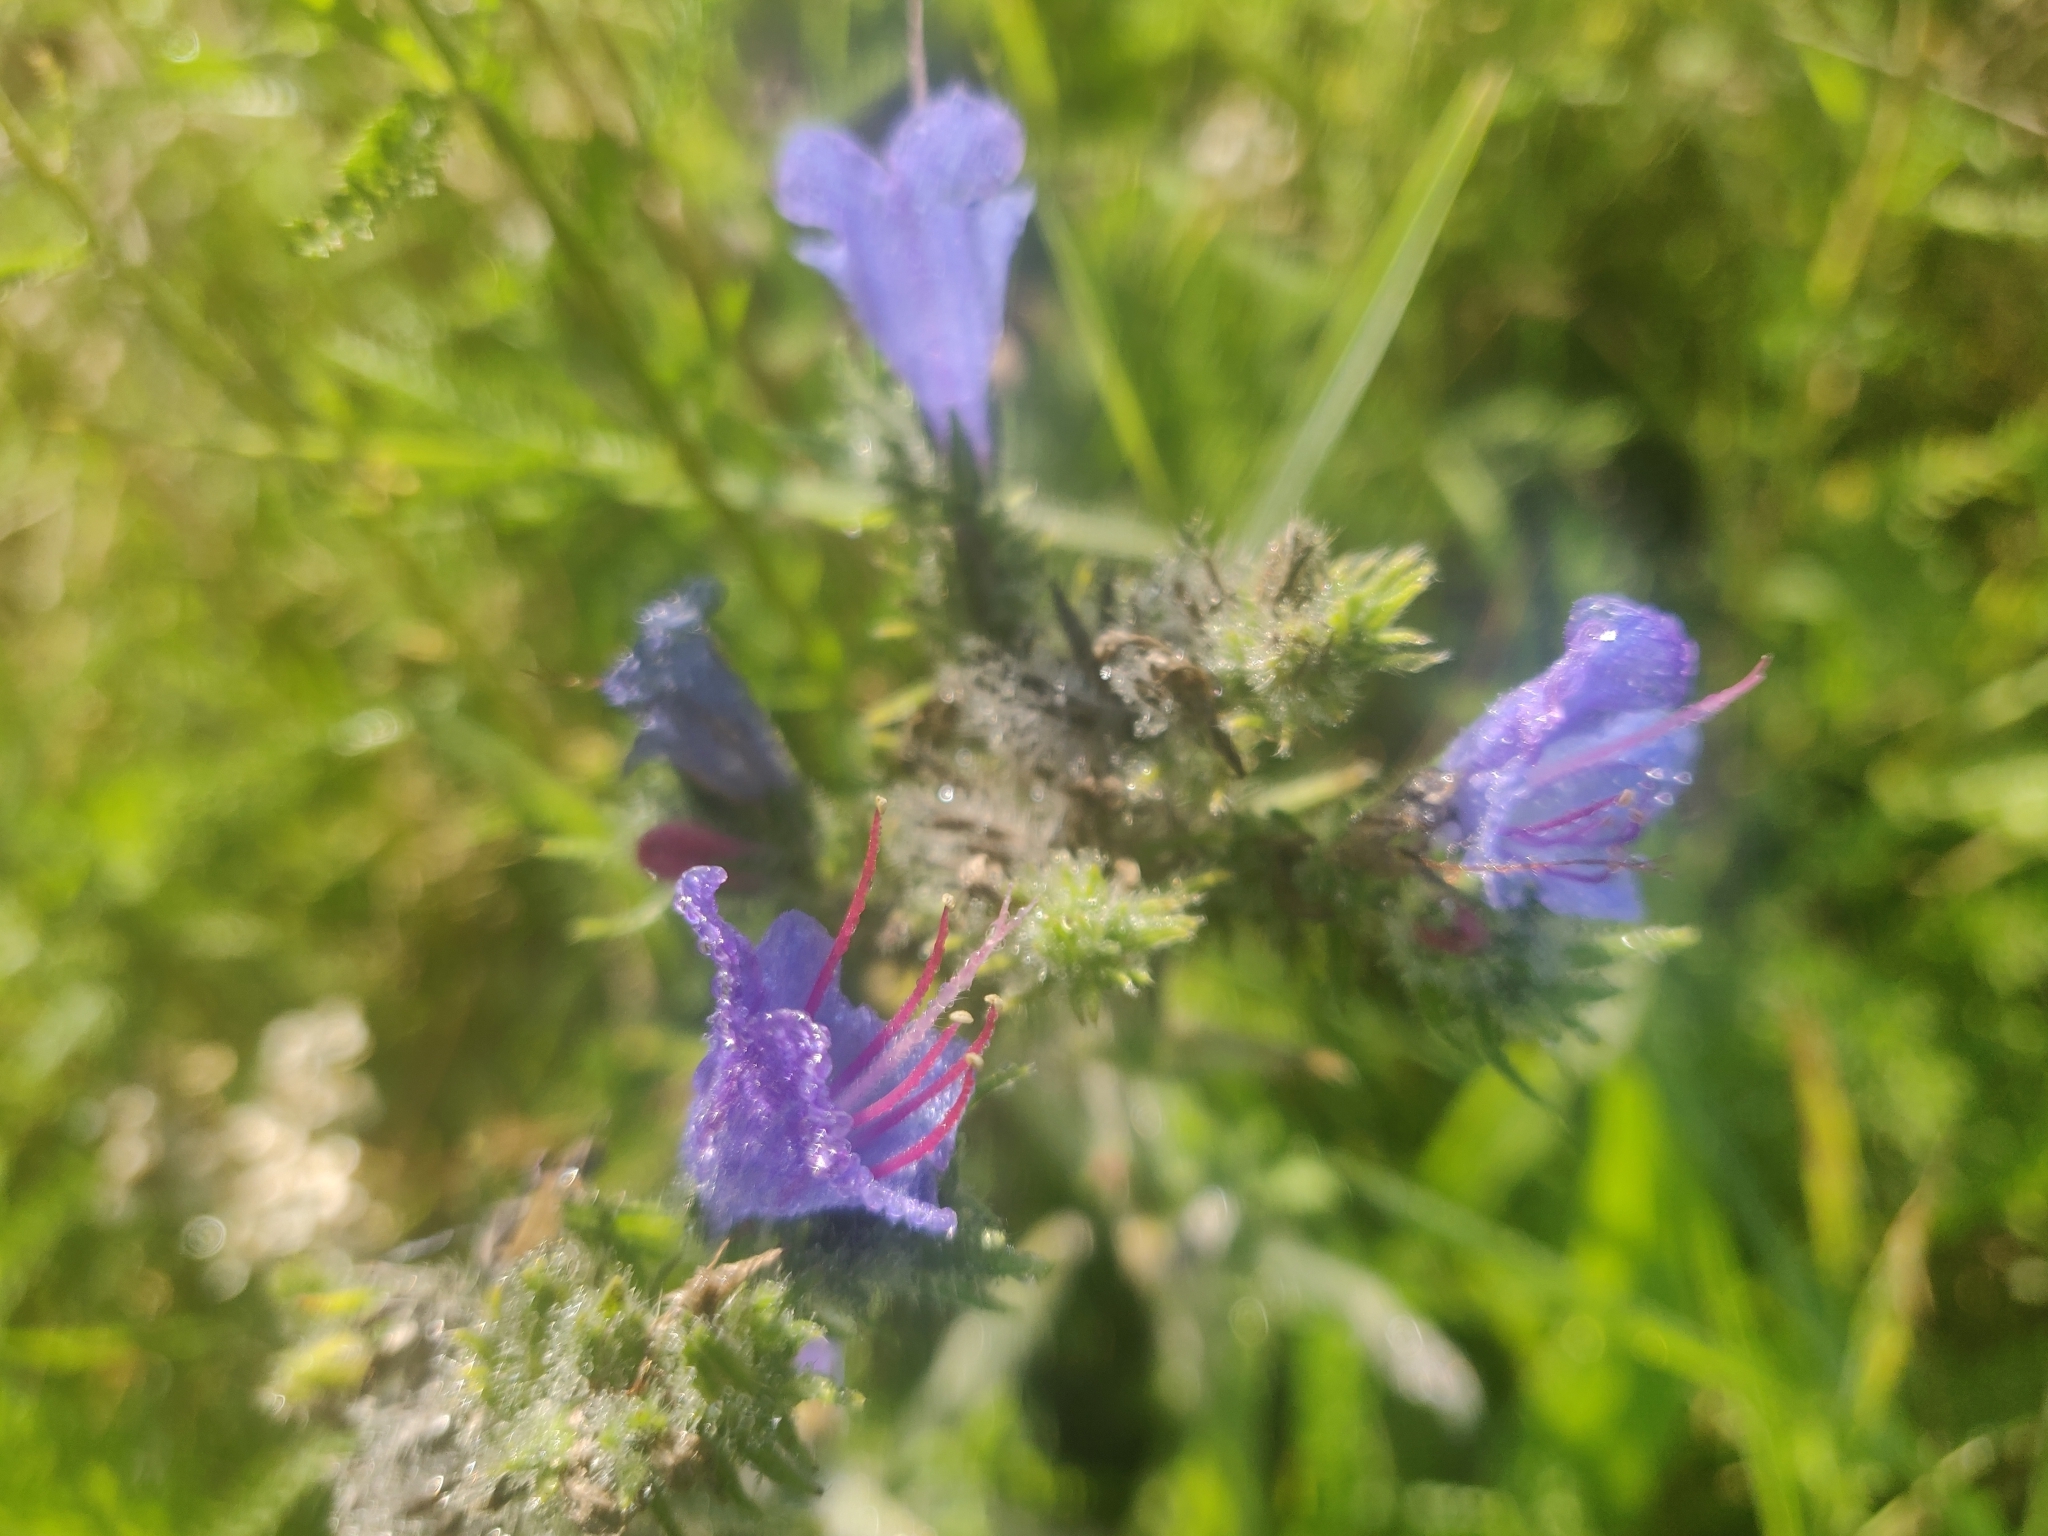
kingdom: Plantae
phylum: Tracheophyta
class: Magnoliopsida
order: Boraginales
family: Boraginaceae
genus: Echium
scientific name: Echium vulgare
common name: Common viper's bugloss
